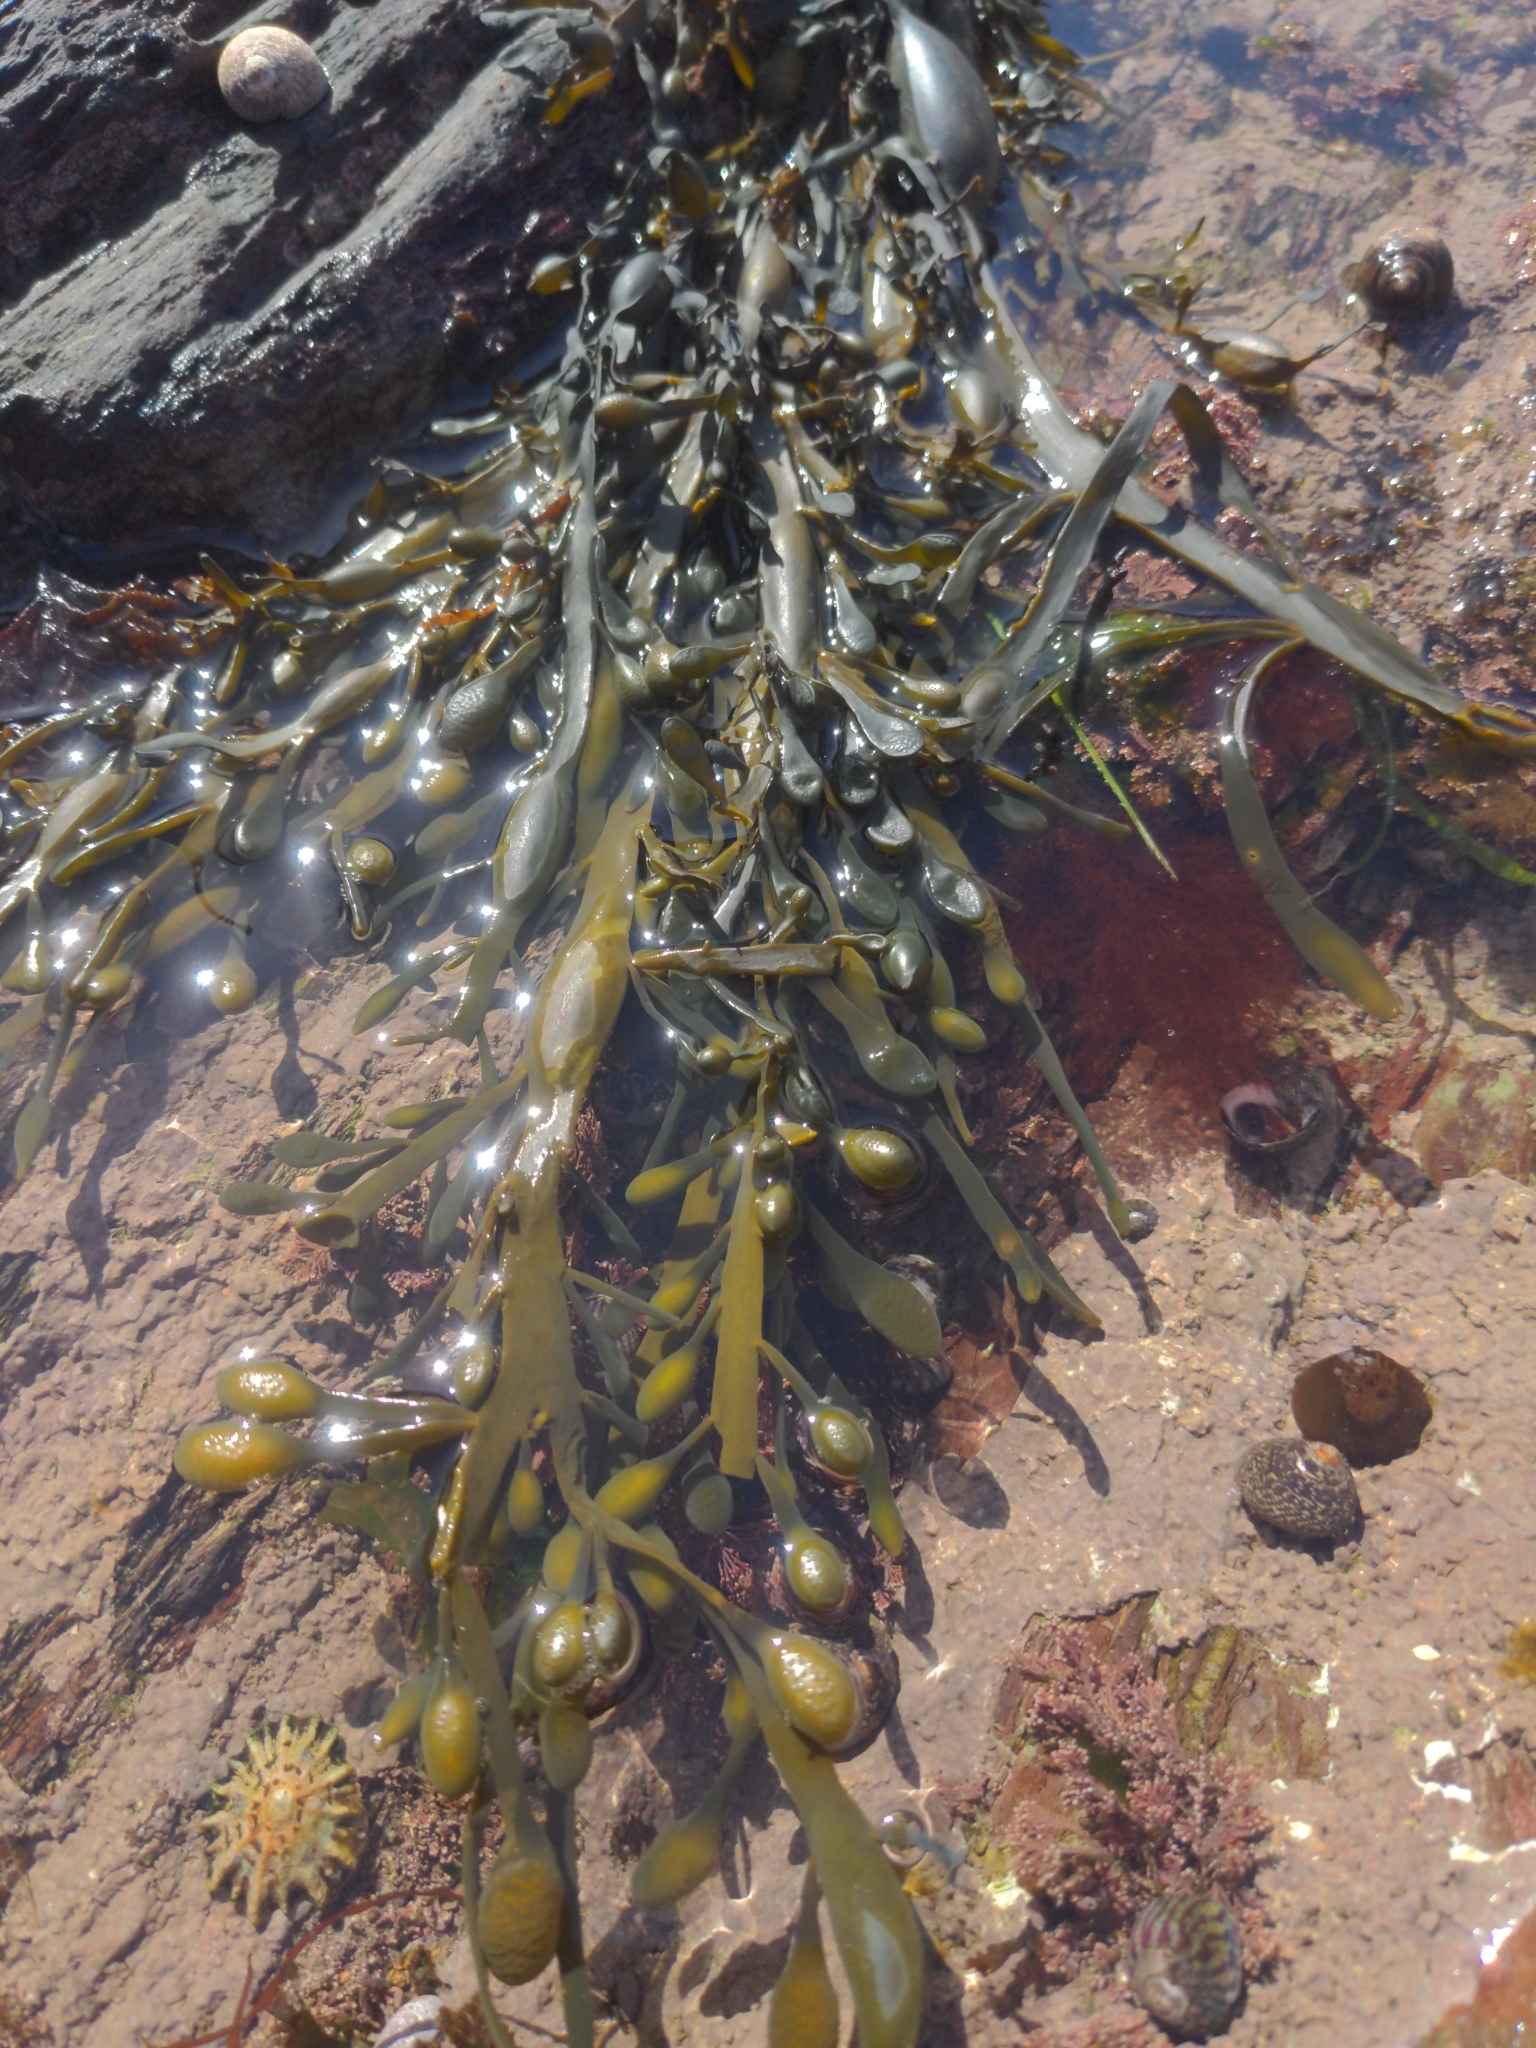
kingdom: Chromista
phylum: Ochrophyta
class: Phaeophyceae
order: Fucales
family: Fucaceae
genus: Ascophyllum
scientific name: Ascophyllum nodosum
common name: Knotted wrack
